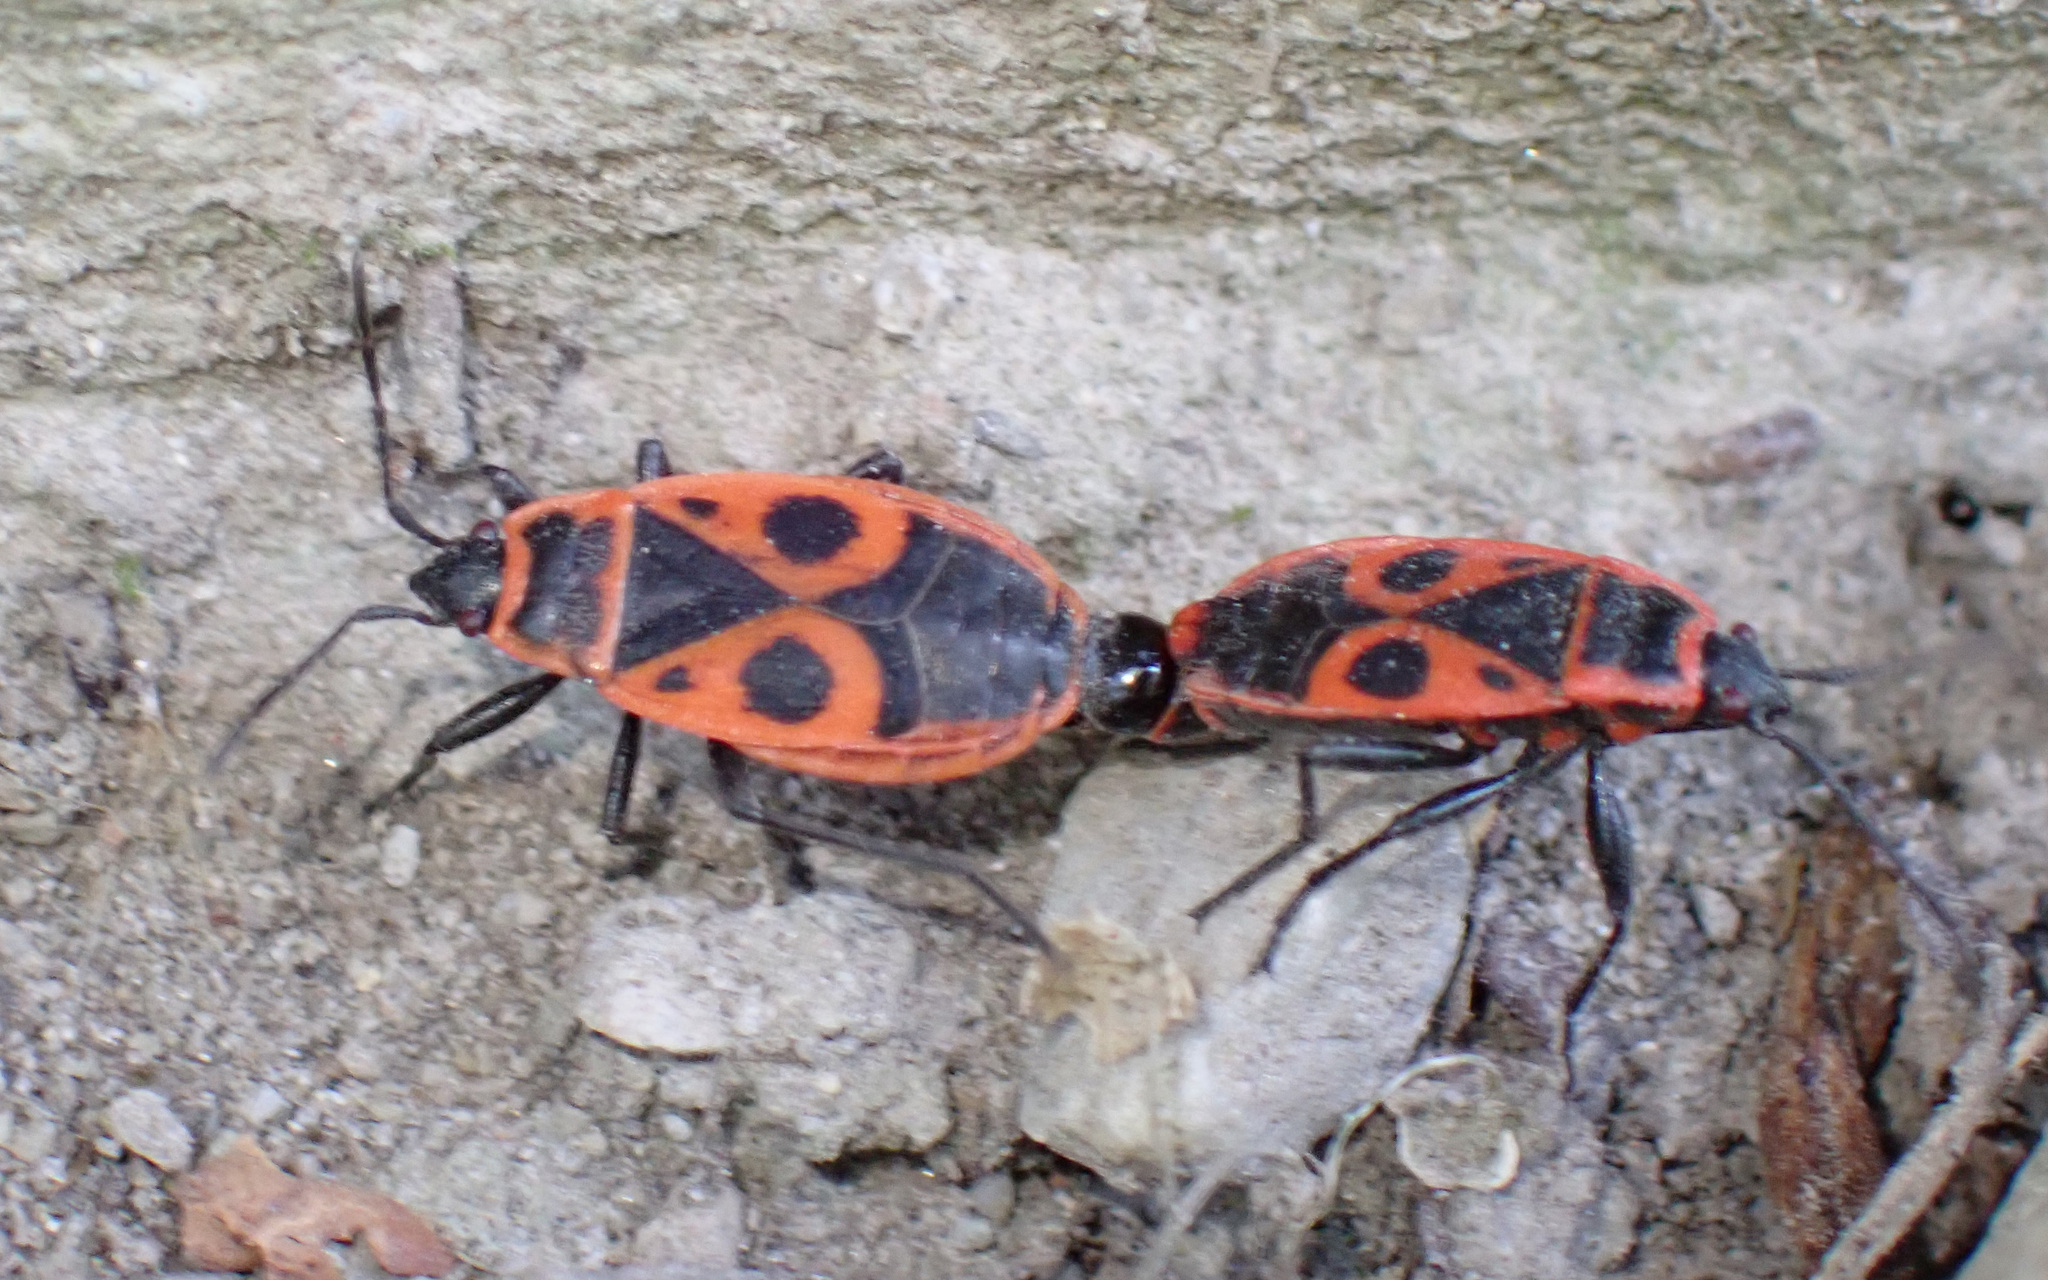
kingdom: Animalia
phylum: Arthropoda
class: Insecta
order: Hemiptera
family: Pyrrhocoridae
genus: Pyrrhocoris
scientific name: Pyrrhocoris apterus
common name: Firebug
